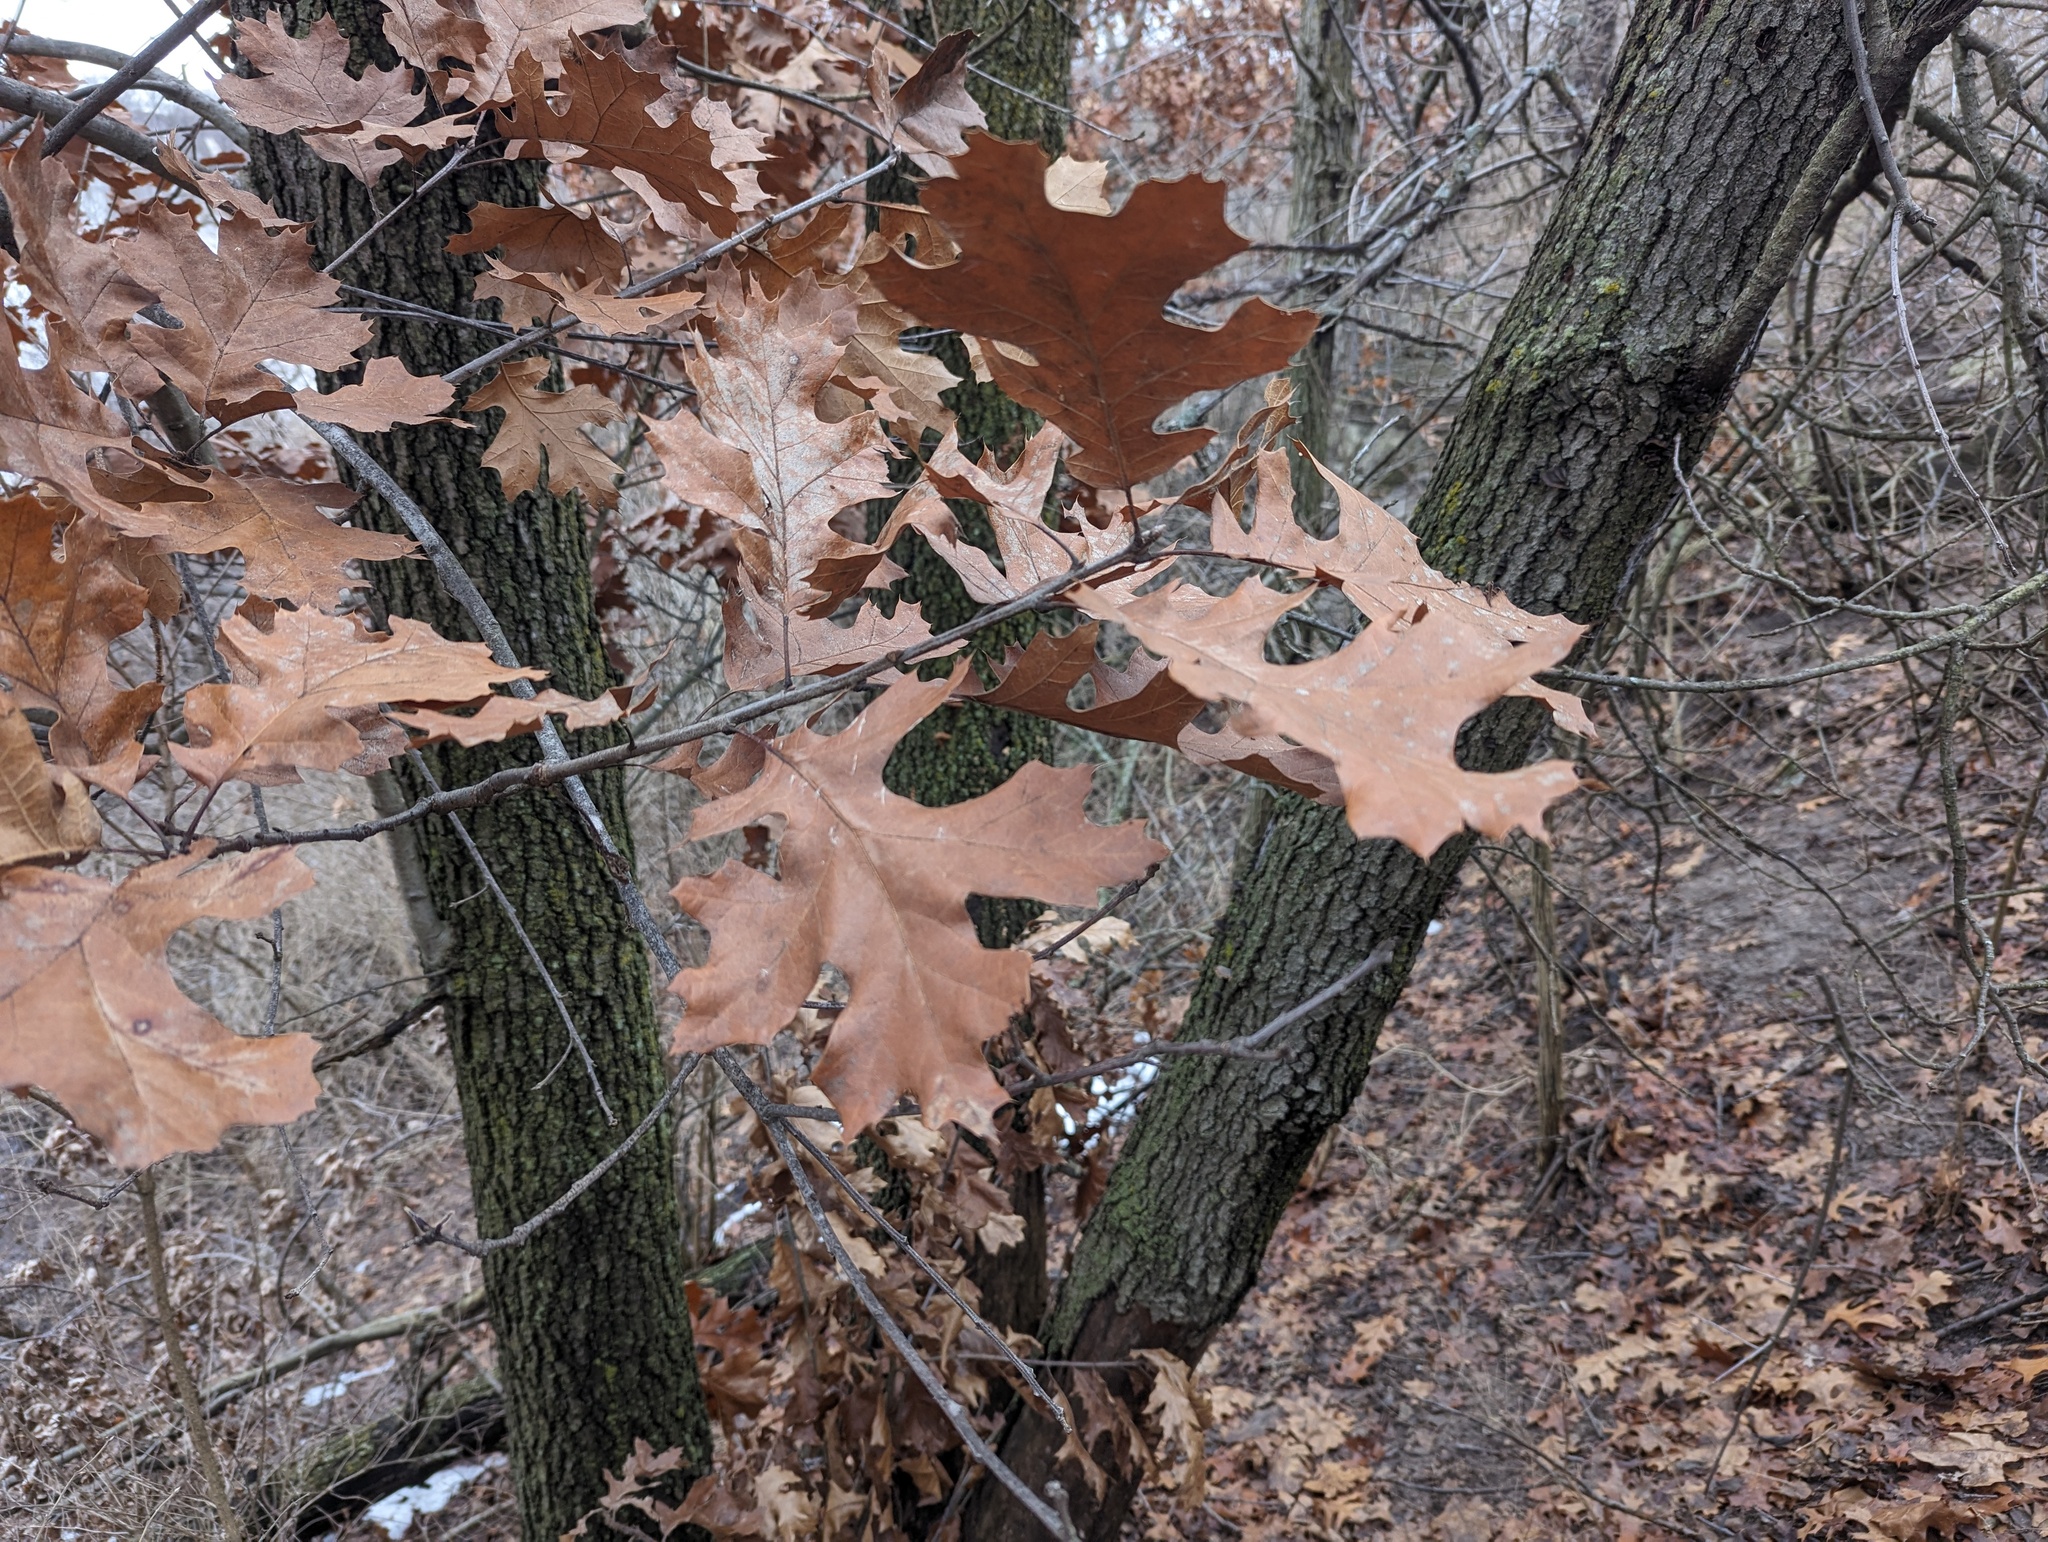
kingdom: Plantae
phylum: Tracheophyta
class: Magnoliopsida
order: Fagales
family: Fagaceae
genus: Quercus
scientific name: Quercus velutina
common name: Black oak
